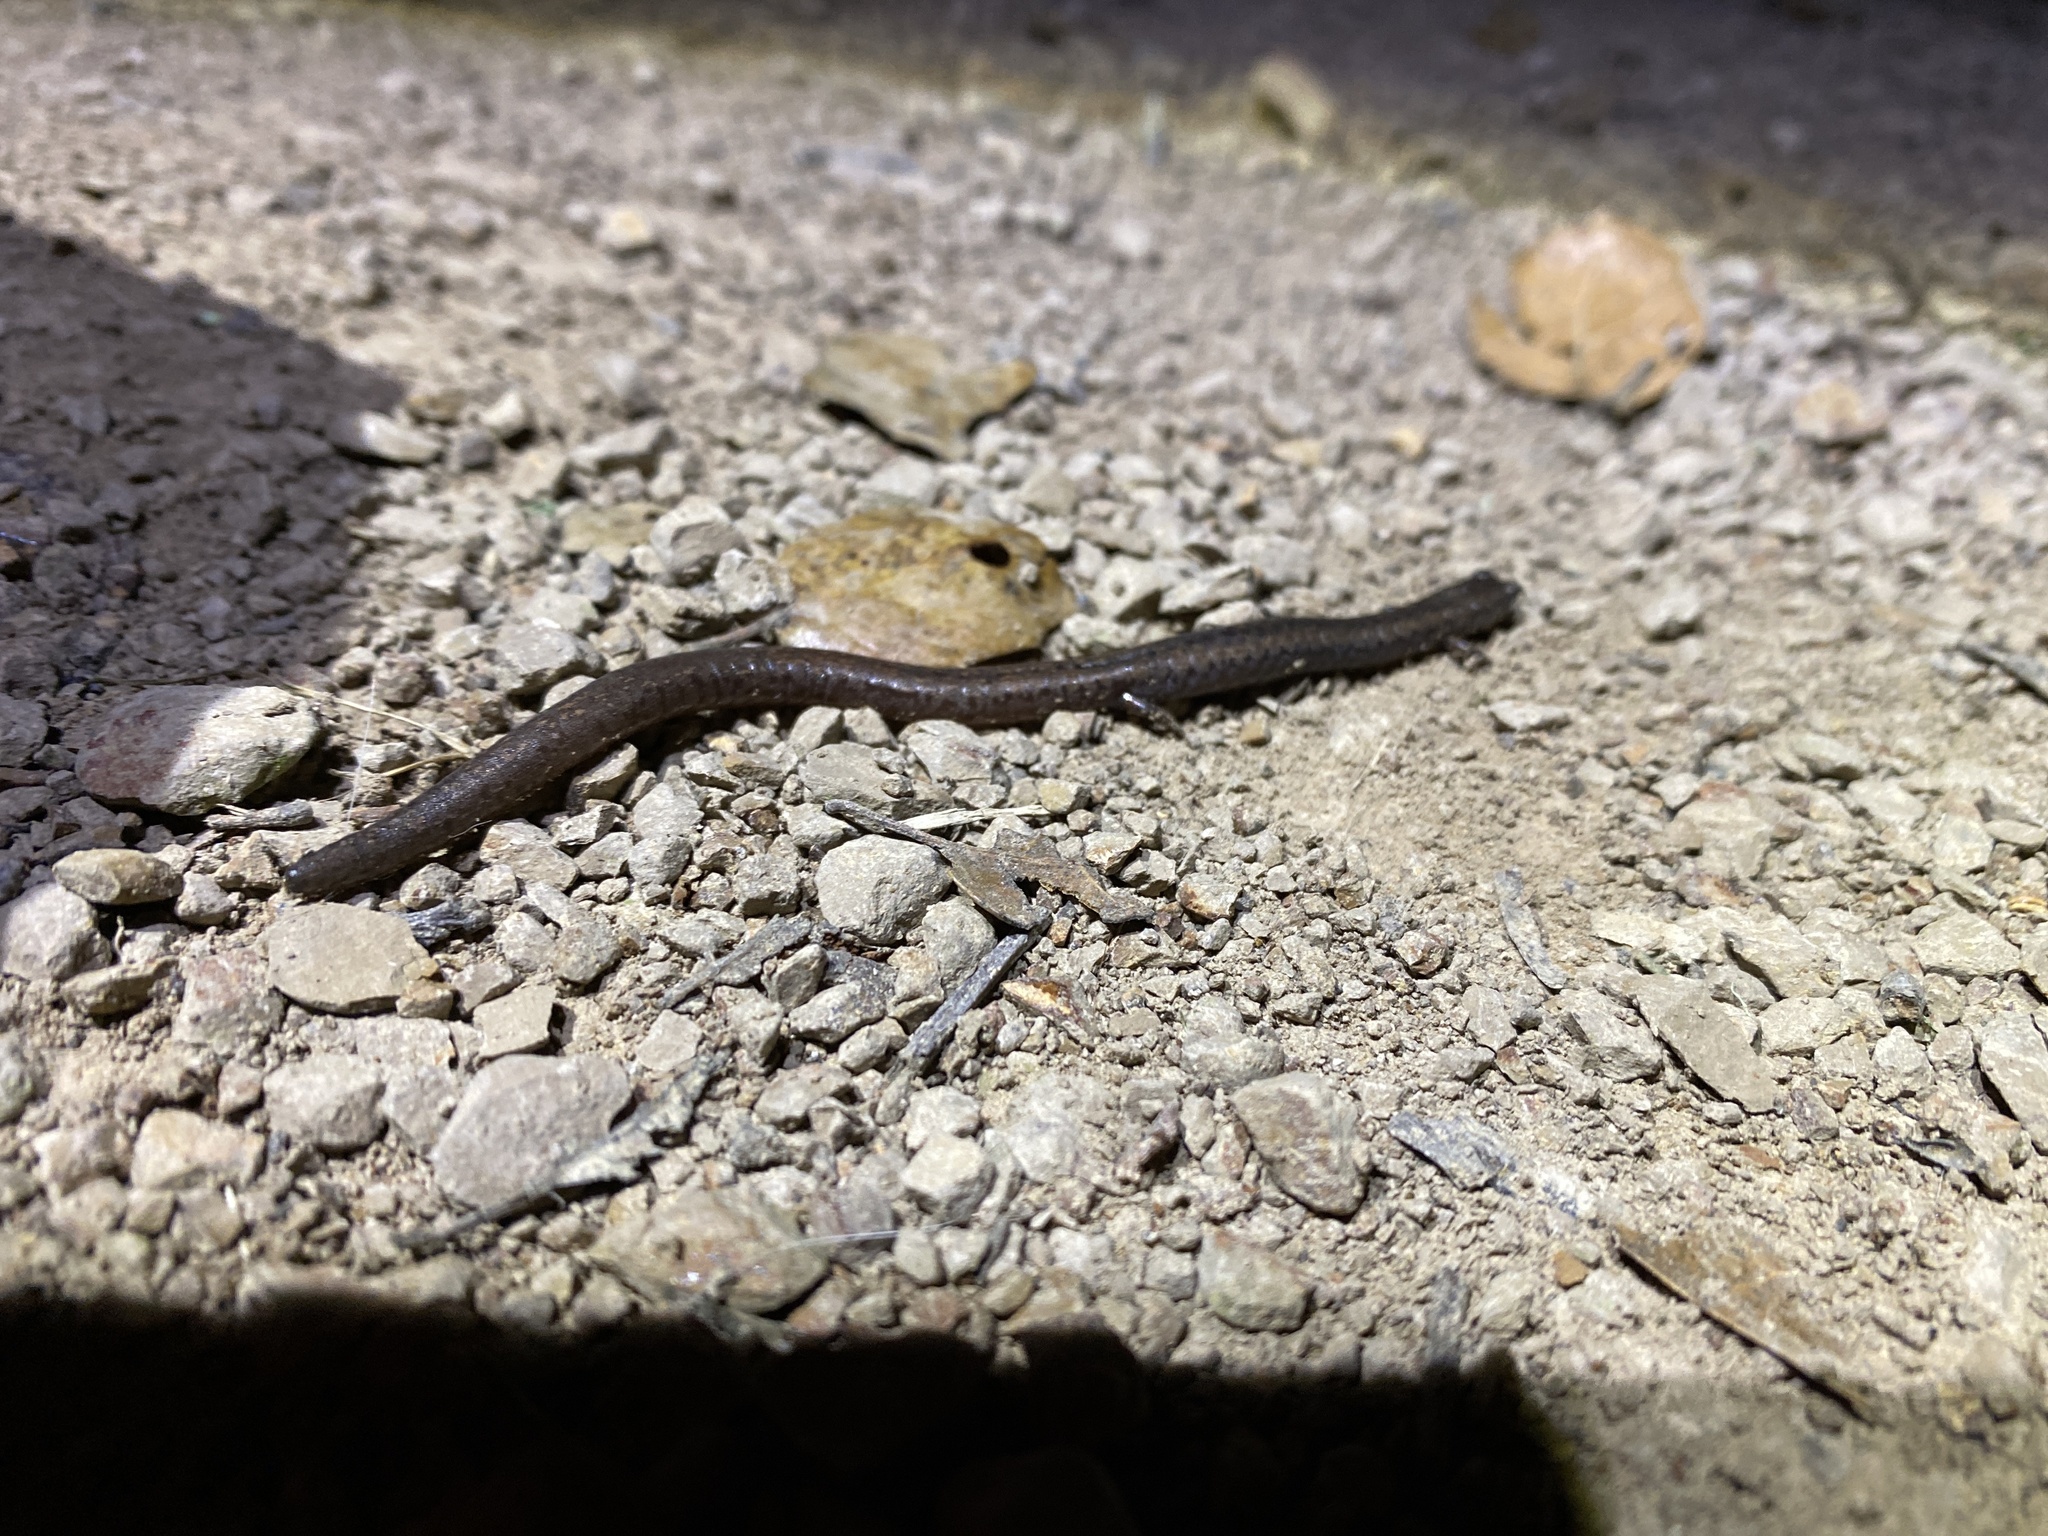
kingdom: Animalia
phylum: Chordata
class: Amphibia
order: Caudata
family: Plethodontidae
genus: Batrachoseps
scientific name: Batrachoseps attenuatus
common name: California slender salamander
